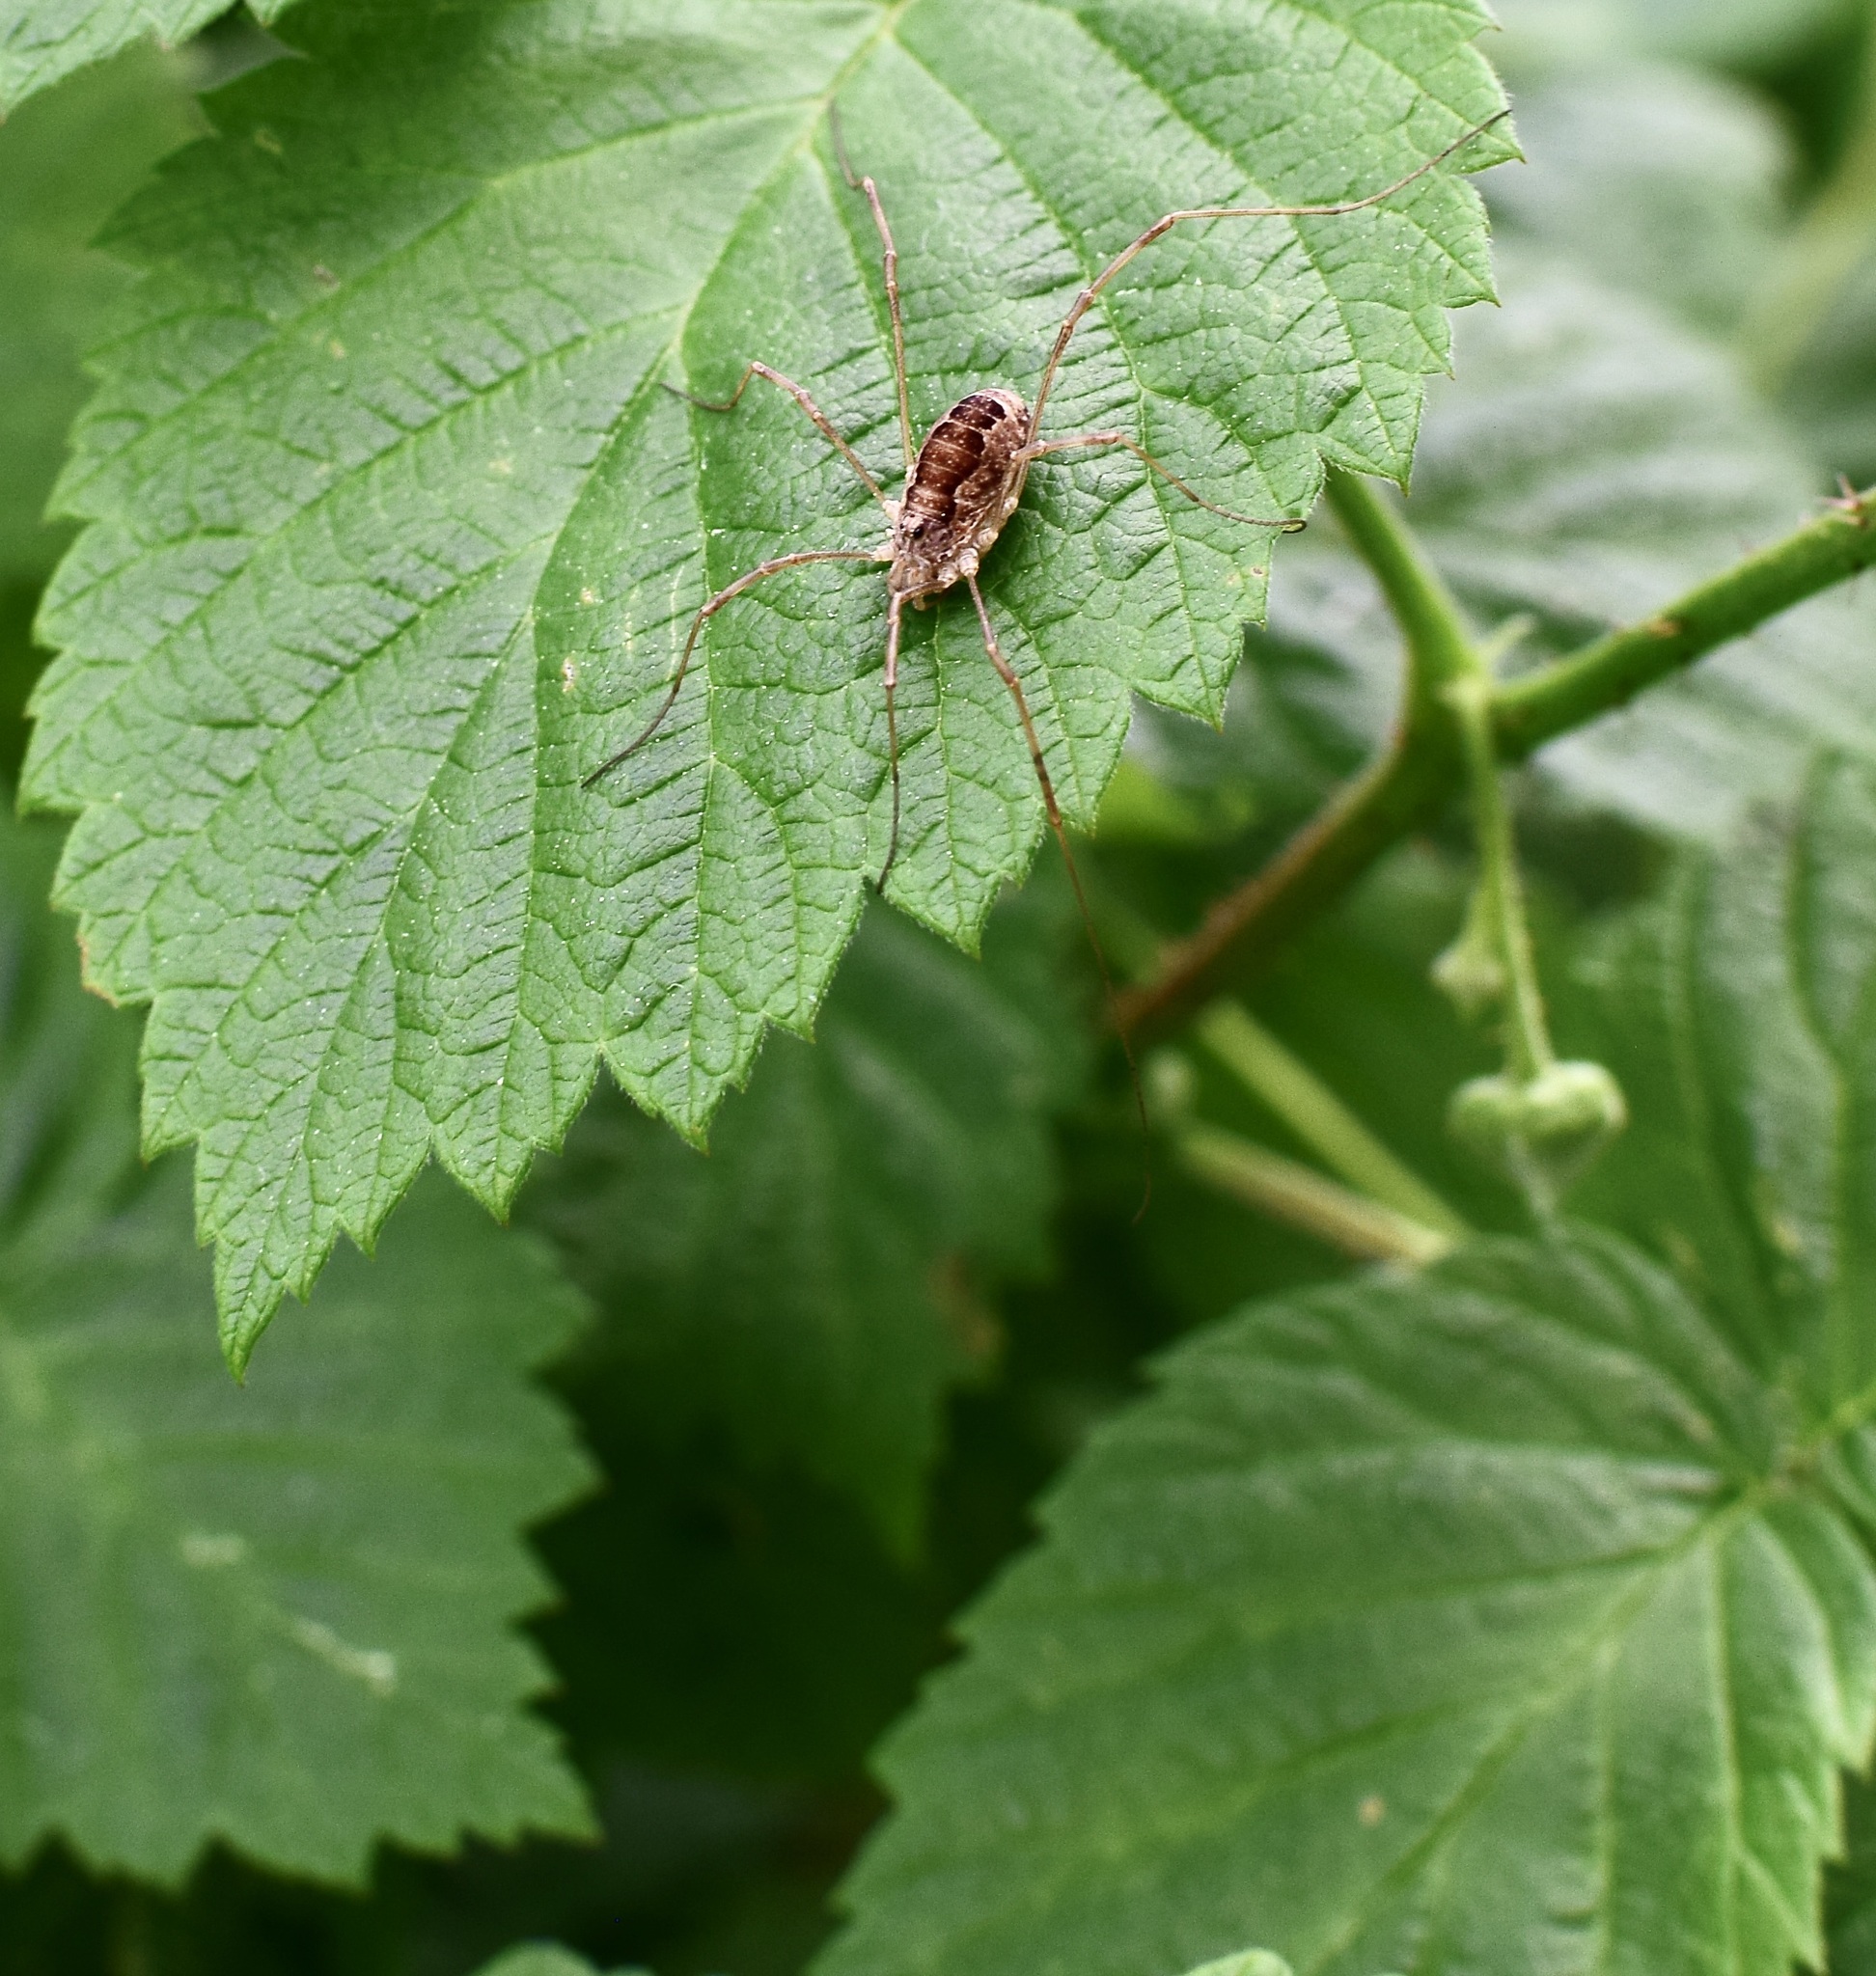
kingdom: Animalia
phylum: Arthropoda
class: Arachnida
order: Opiliones
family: Phalangiidae
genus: Rilaena
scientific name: Rilaena triangularis
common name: Spring harvestman
